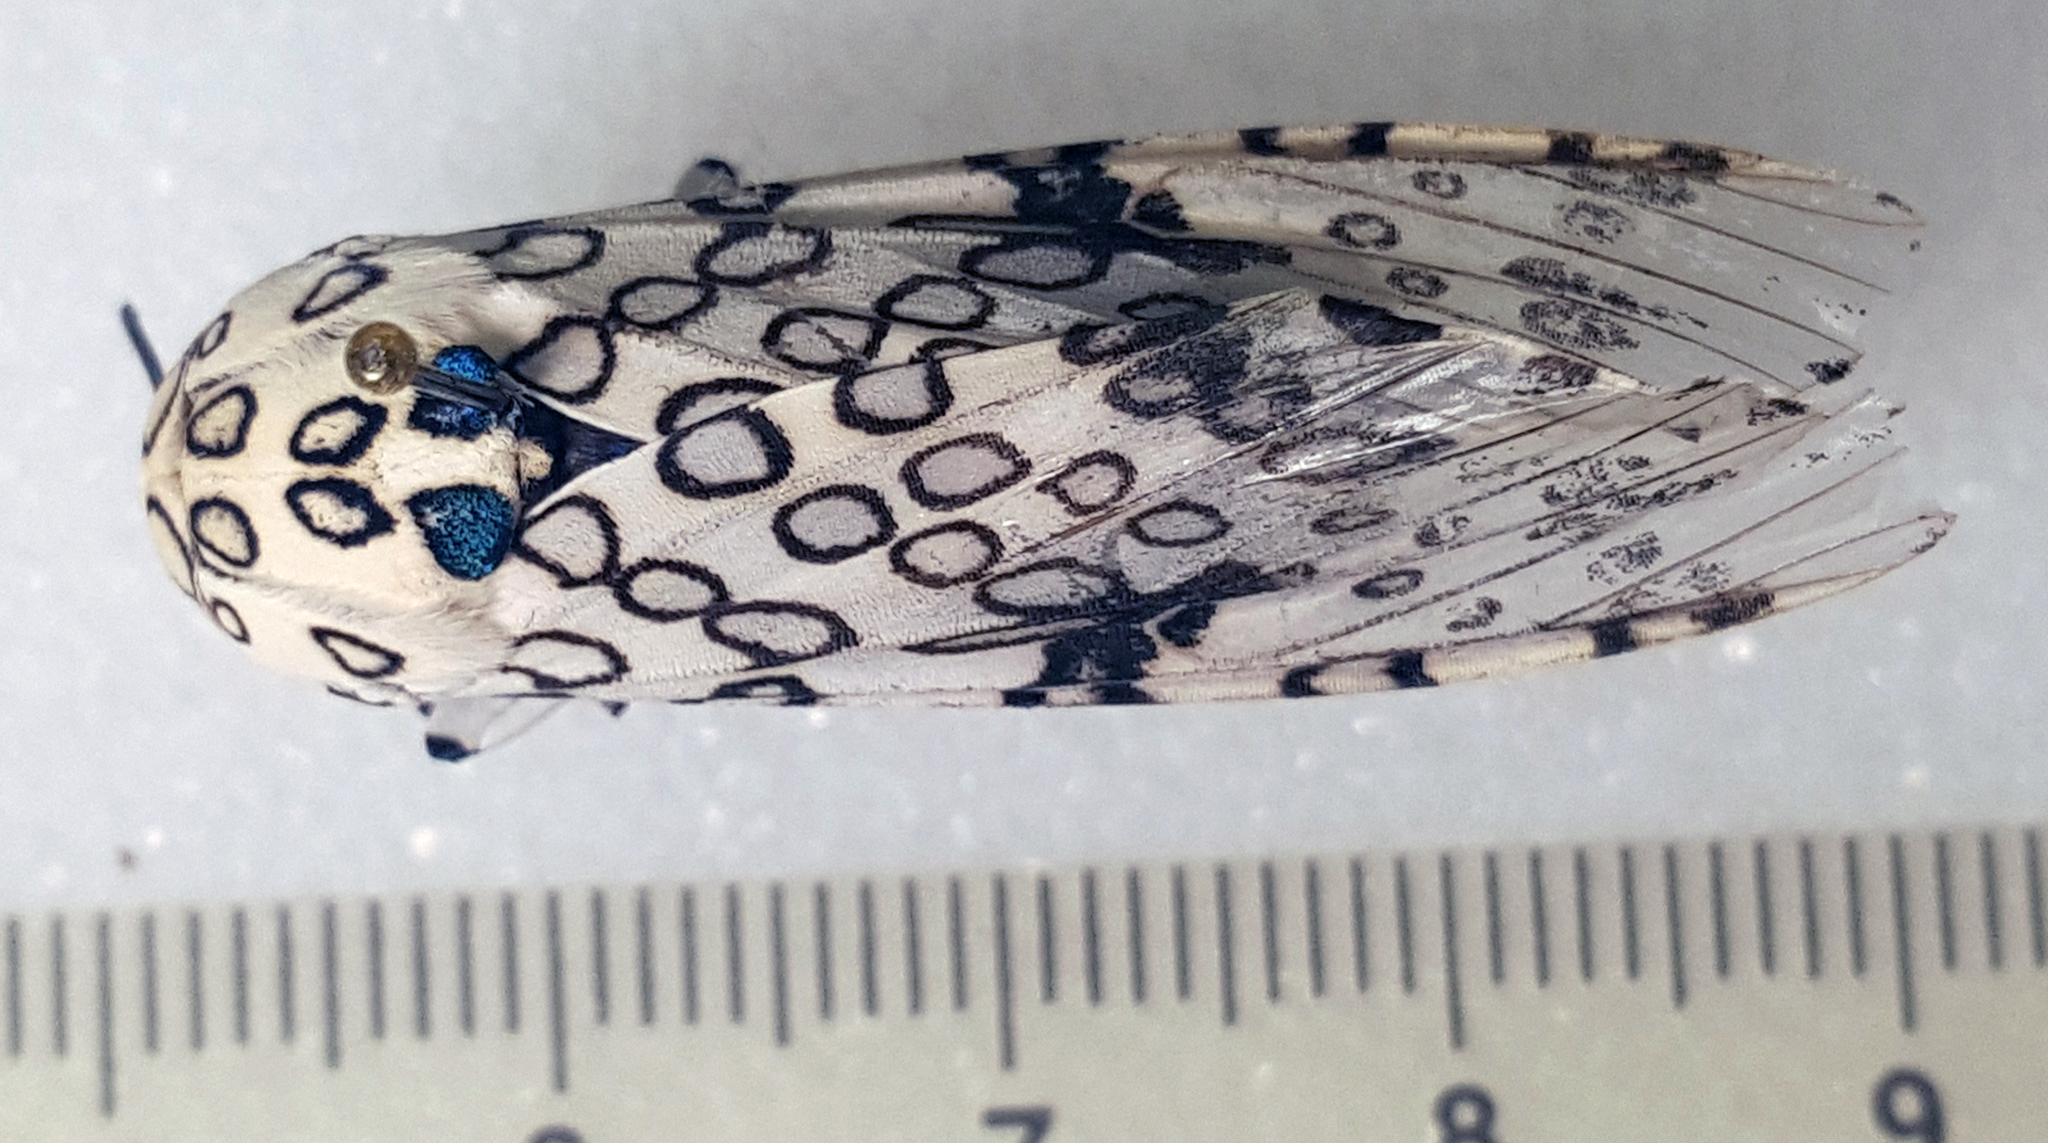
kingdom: Animalia
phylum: Arthropoda
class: Insecta
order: Lepidoptera
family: Erebidae
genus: Hypercompe
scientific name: Hypercompe scribonia
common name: Giant leopard moth
